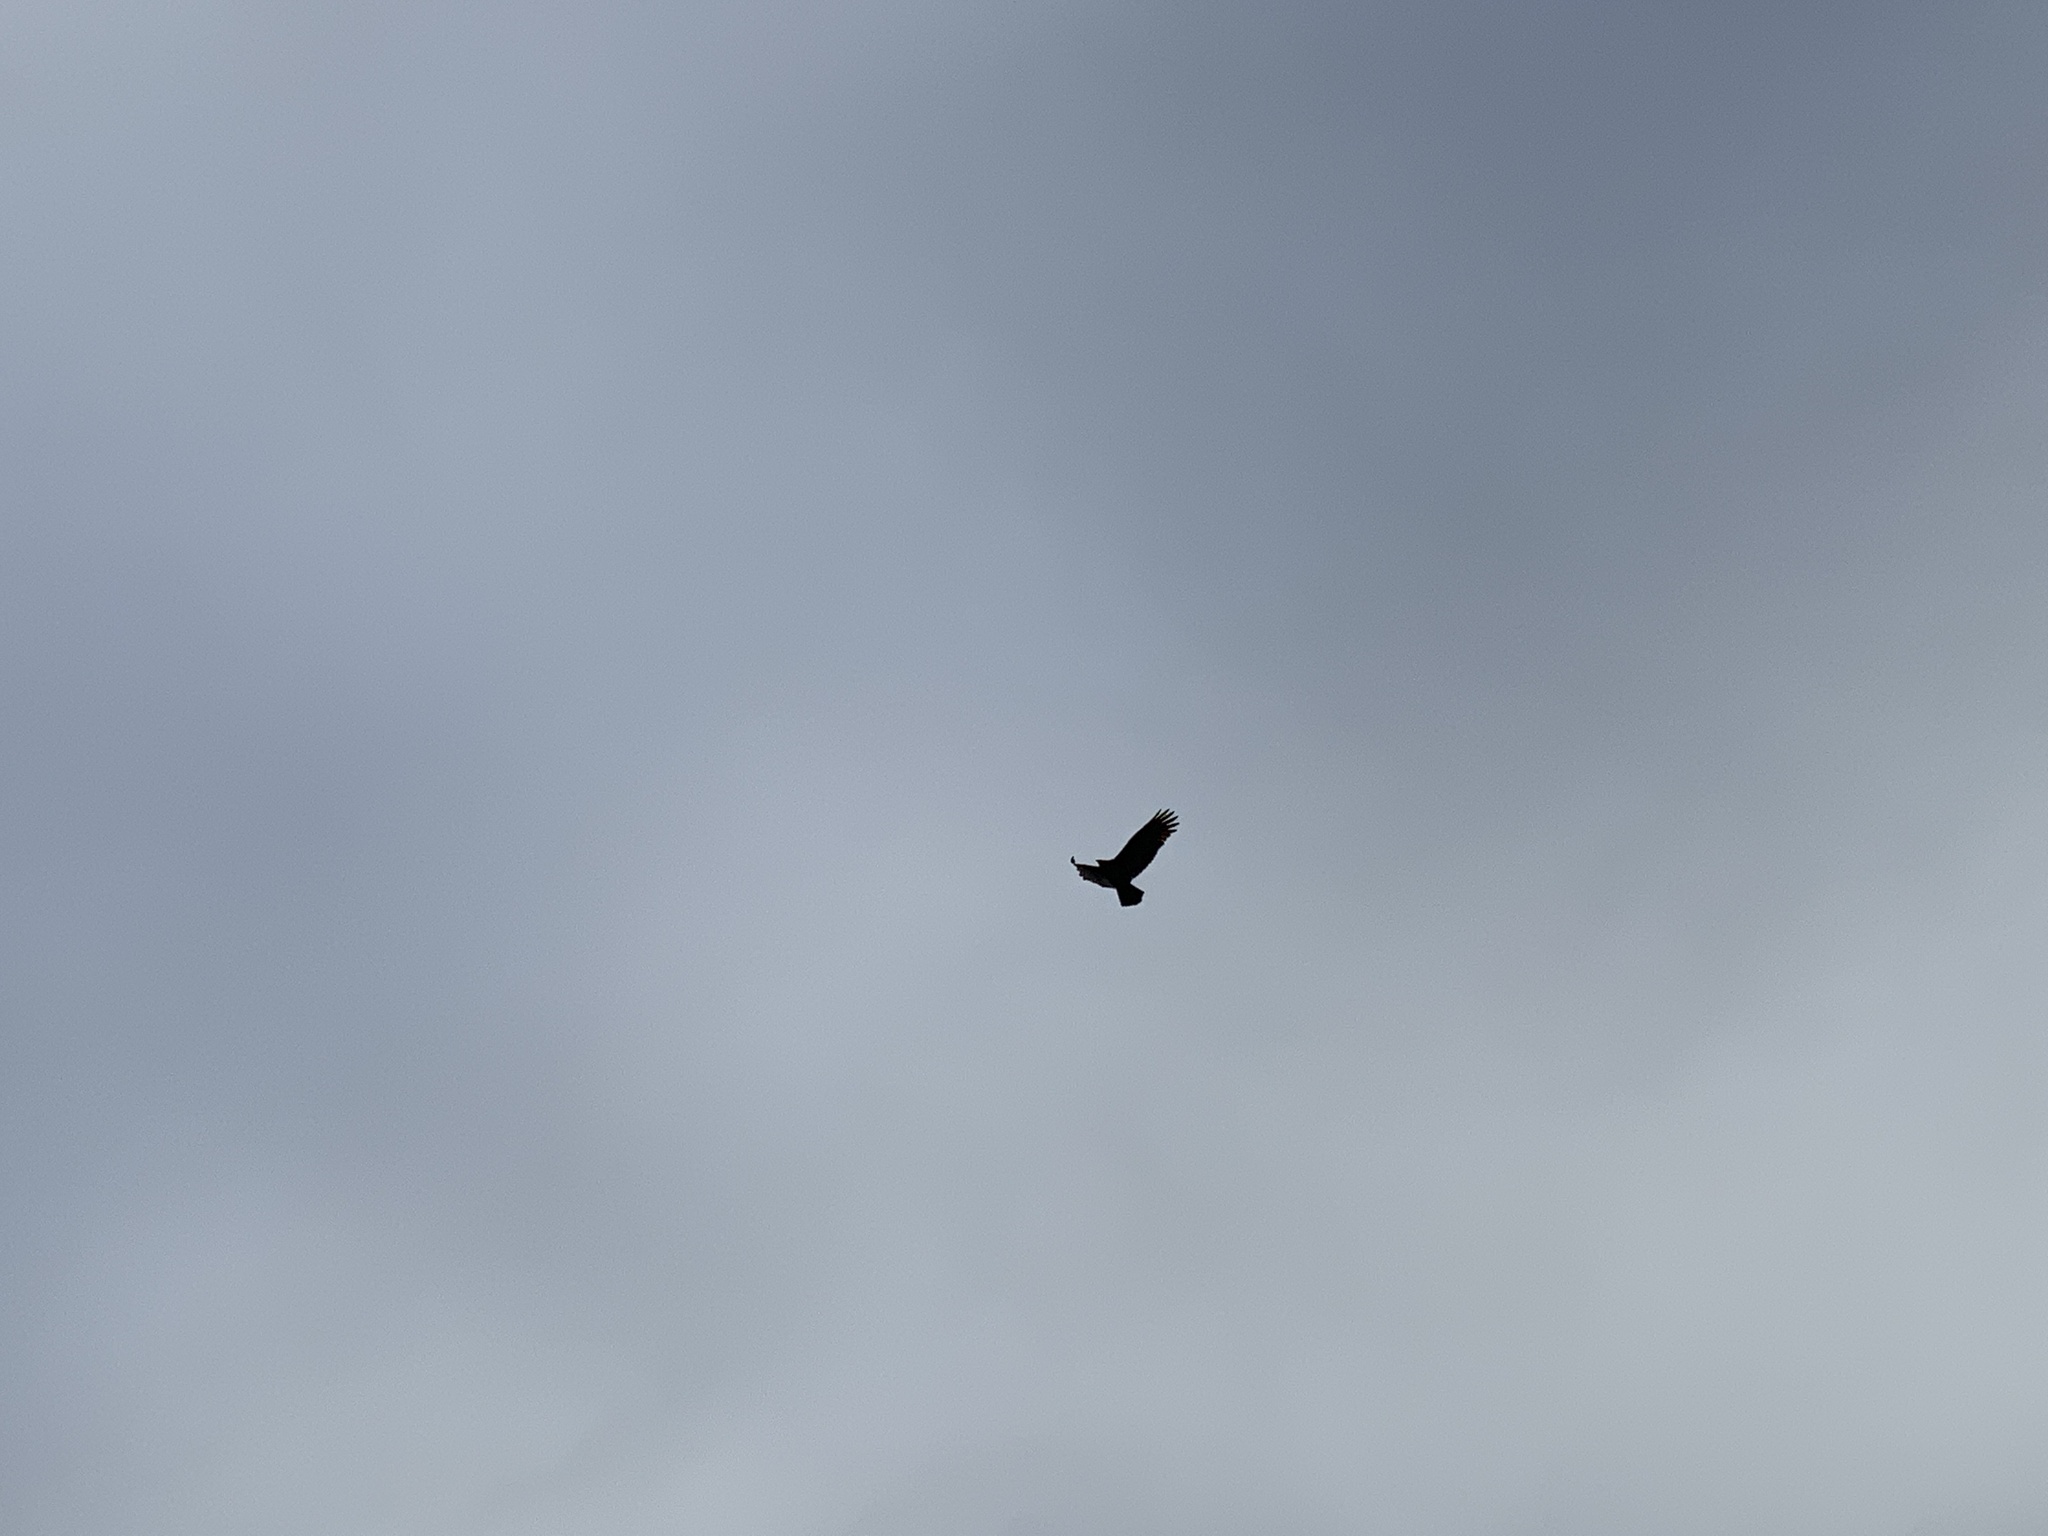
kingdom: Animalia
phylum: Chordata
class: Aves
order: Passeriformes
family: Corvidae
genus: Corvus
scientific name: Corvus corax
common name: Common raven
